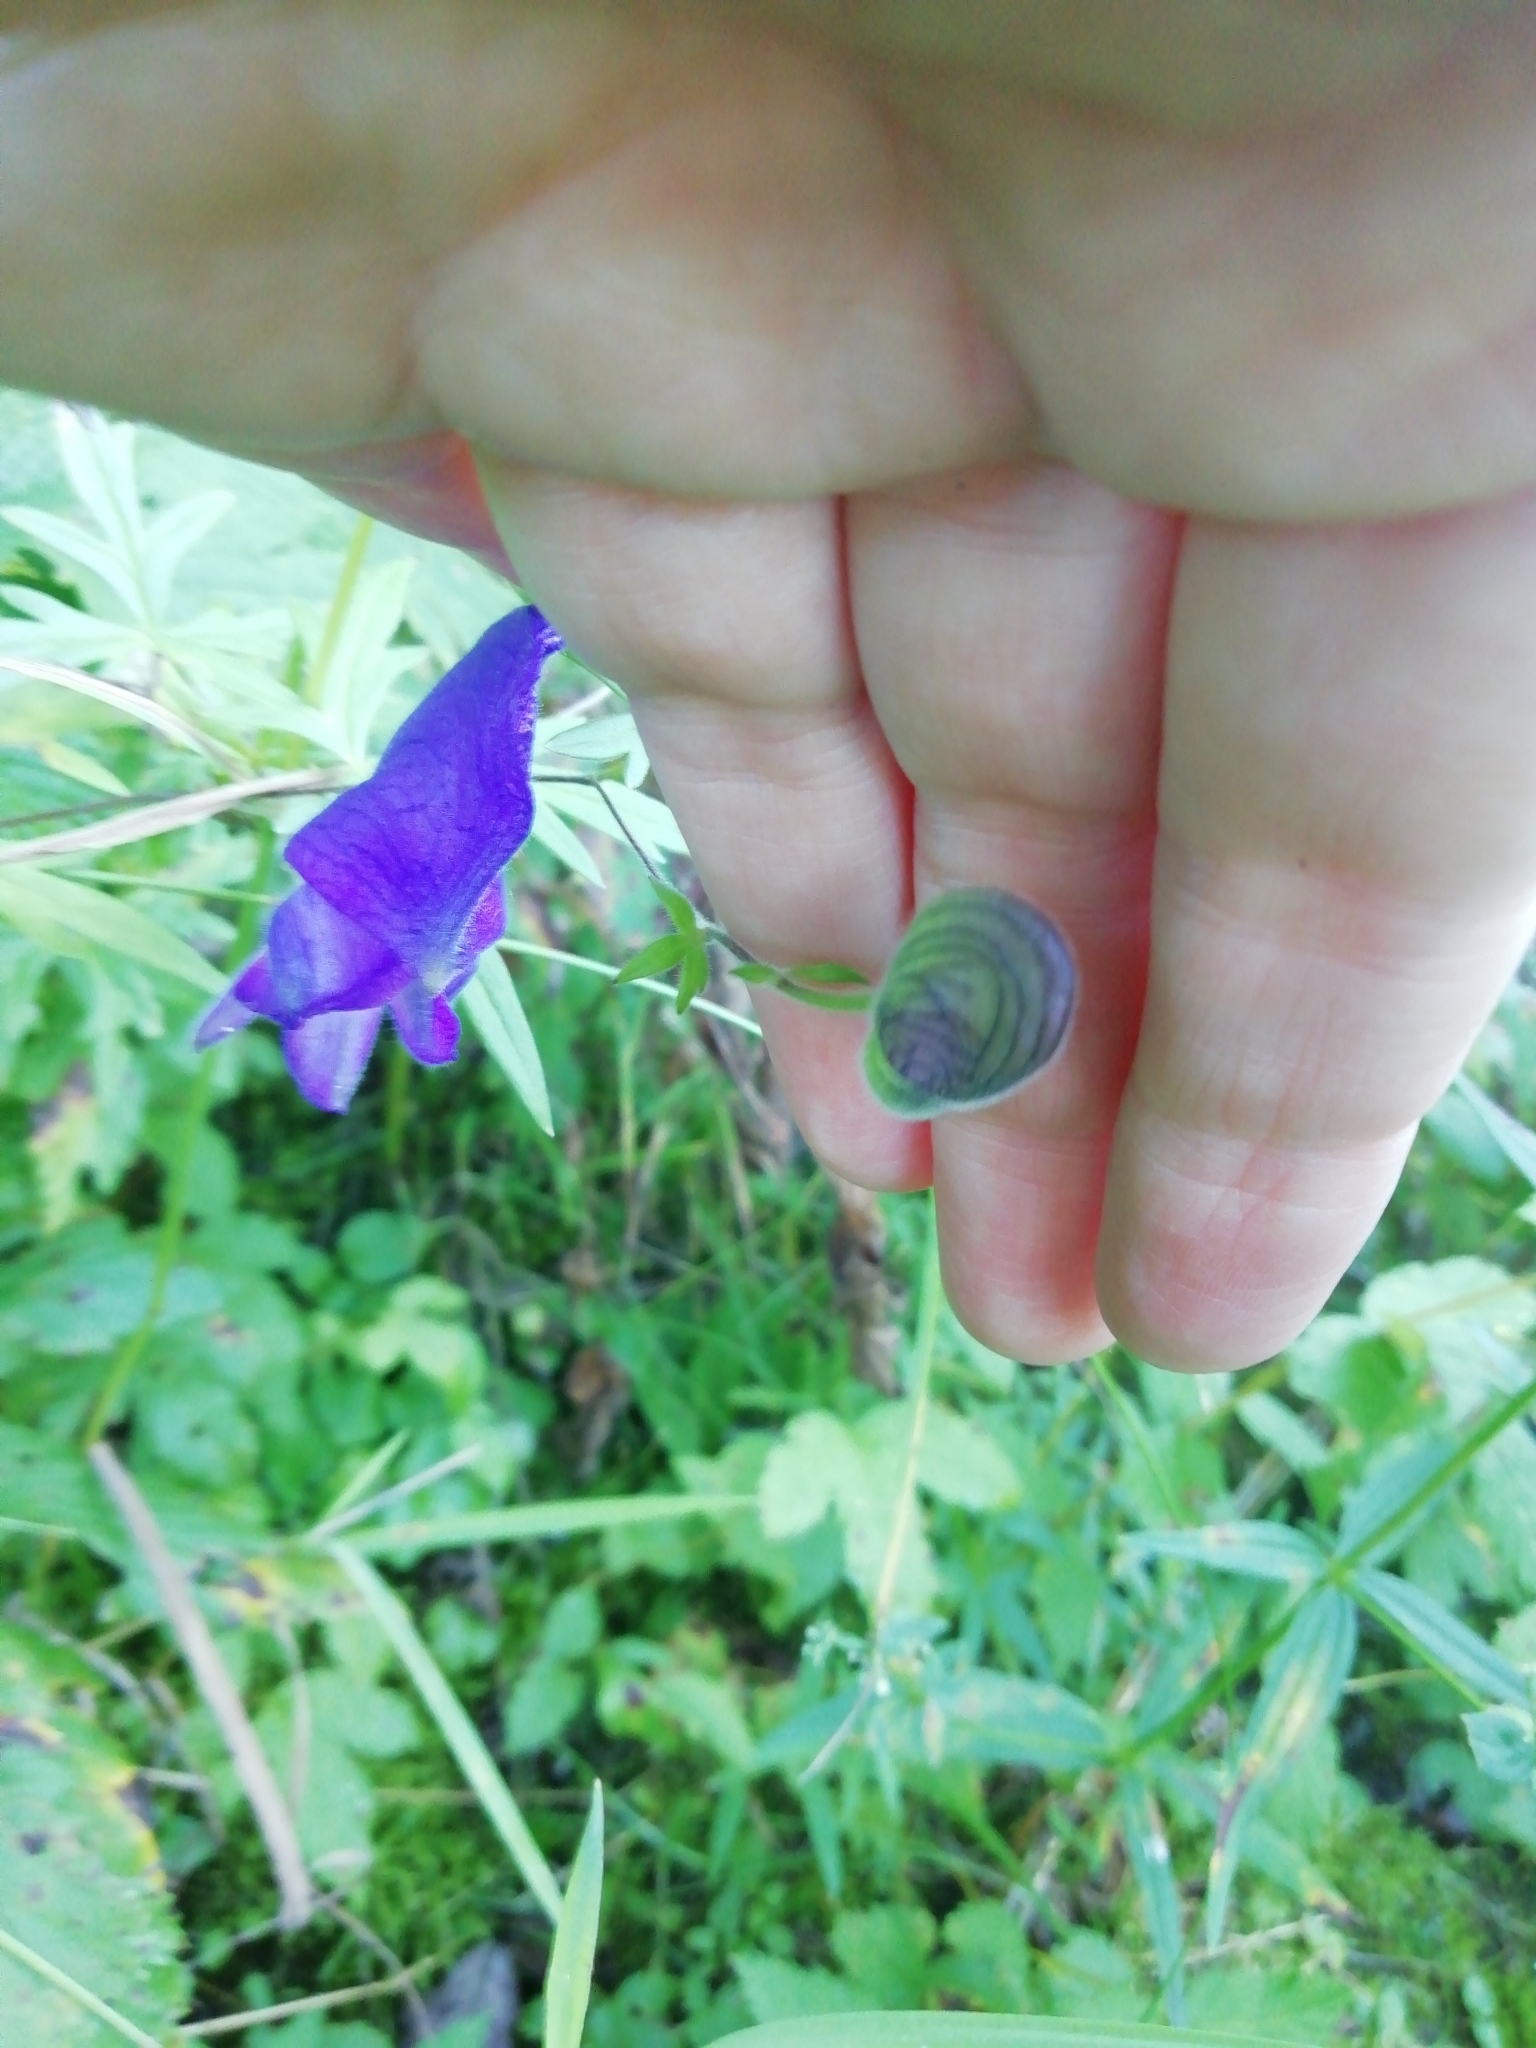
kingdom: Plantae
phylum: Tracheophyta
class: Magnoliopsida
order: Ranunculales
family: Ranunculaceae
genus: Aconitum
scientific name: Aconitum volubile
